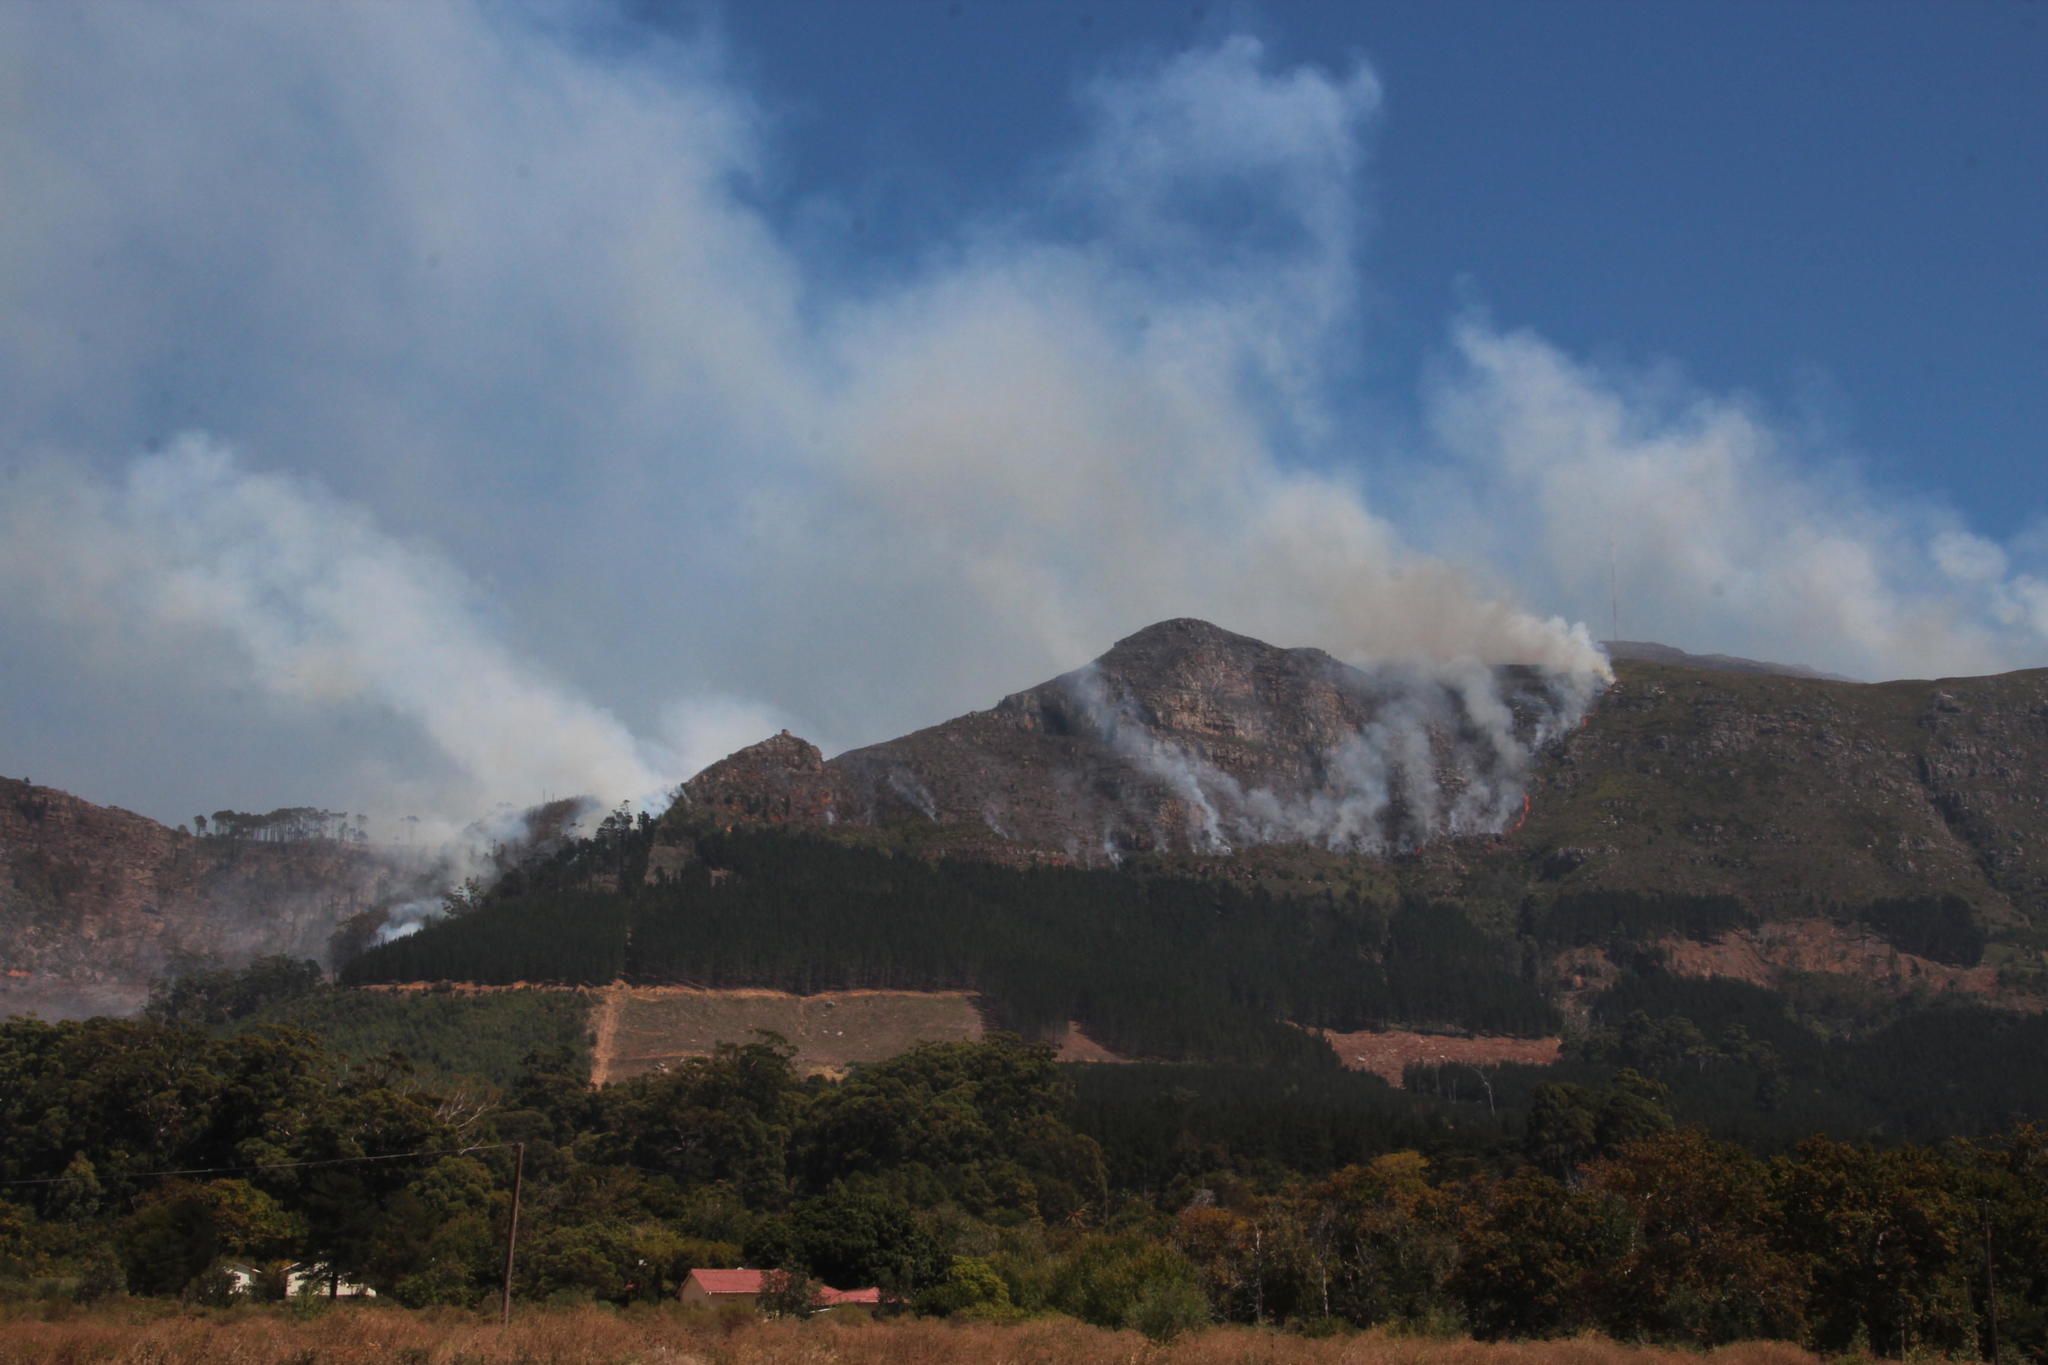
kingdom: Plantae
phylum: Tracheophyta
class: Pinopsida
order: Pinales
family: Pinaceae
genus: Pinus
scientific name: Pinus radiata
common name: Monterey pine
